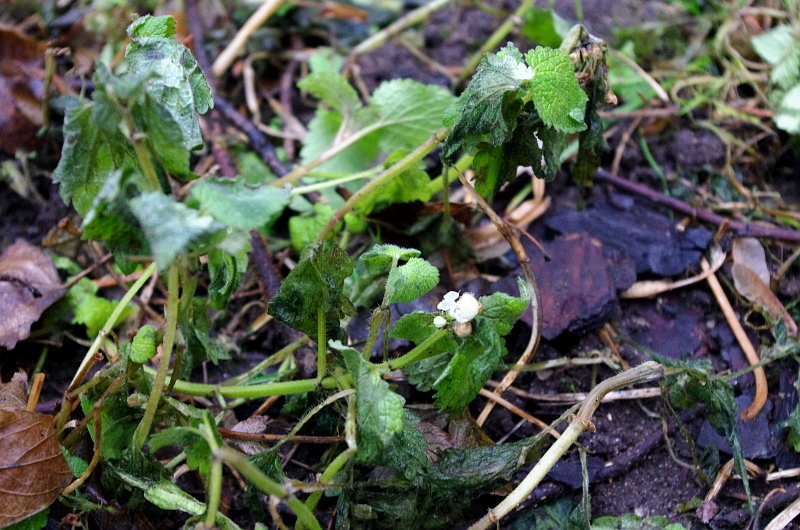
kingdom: Plantae
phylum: Tracheophyta
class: Magnoliopsida
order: Lamiales
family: Lamiaceae
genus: Lamium
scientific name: Lamium album
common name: White dead-nettle
